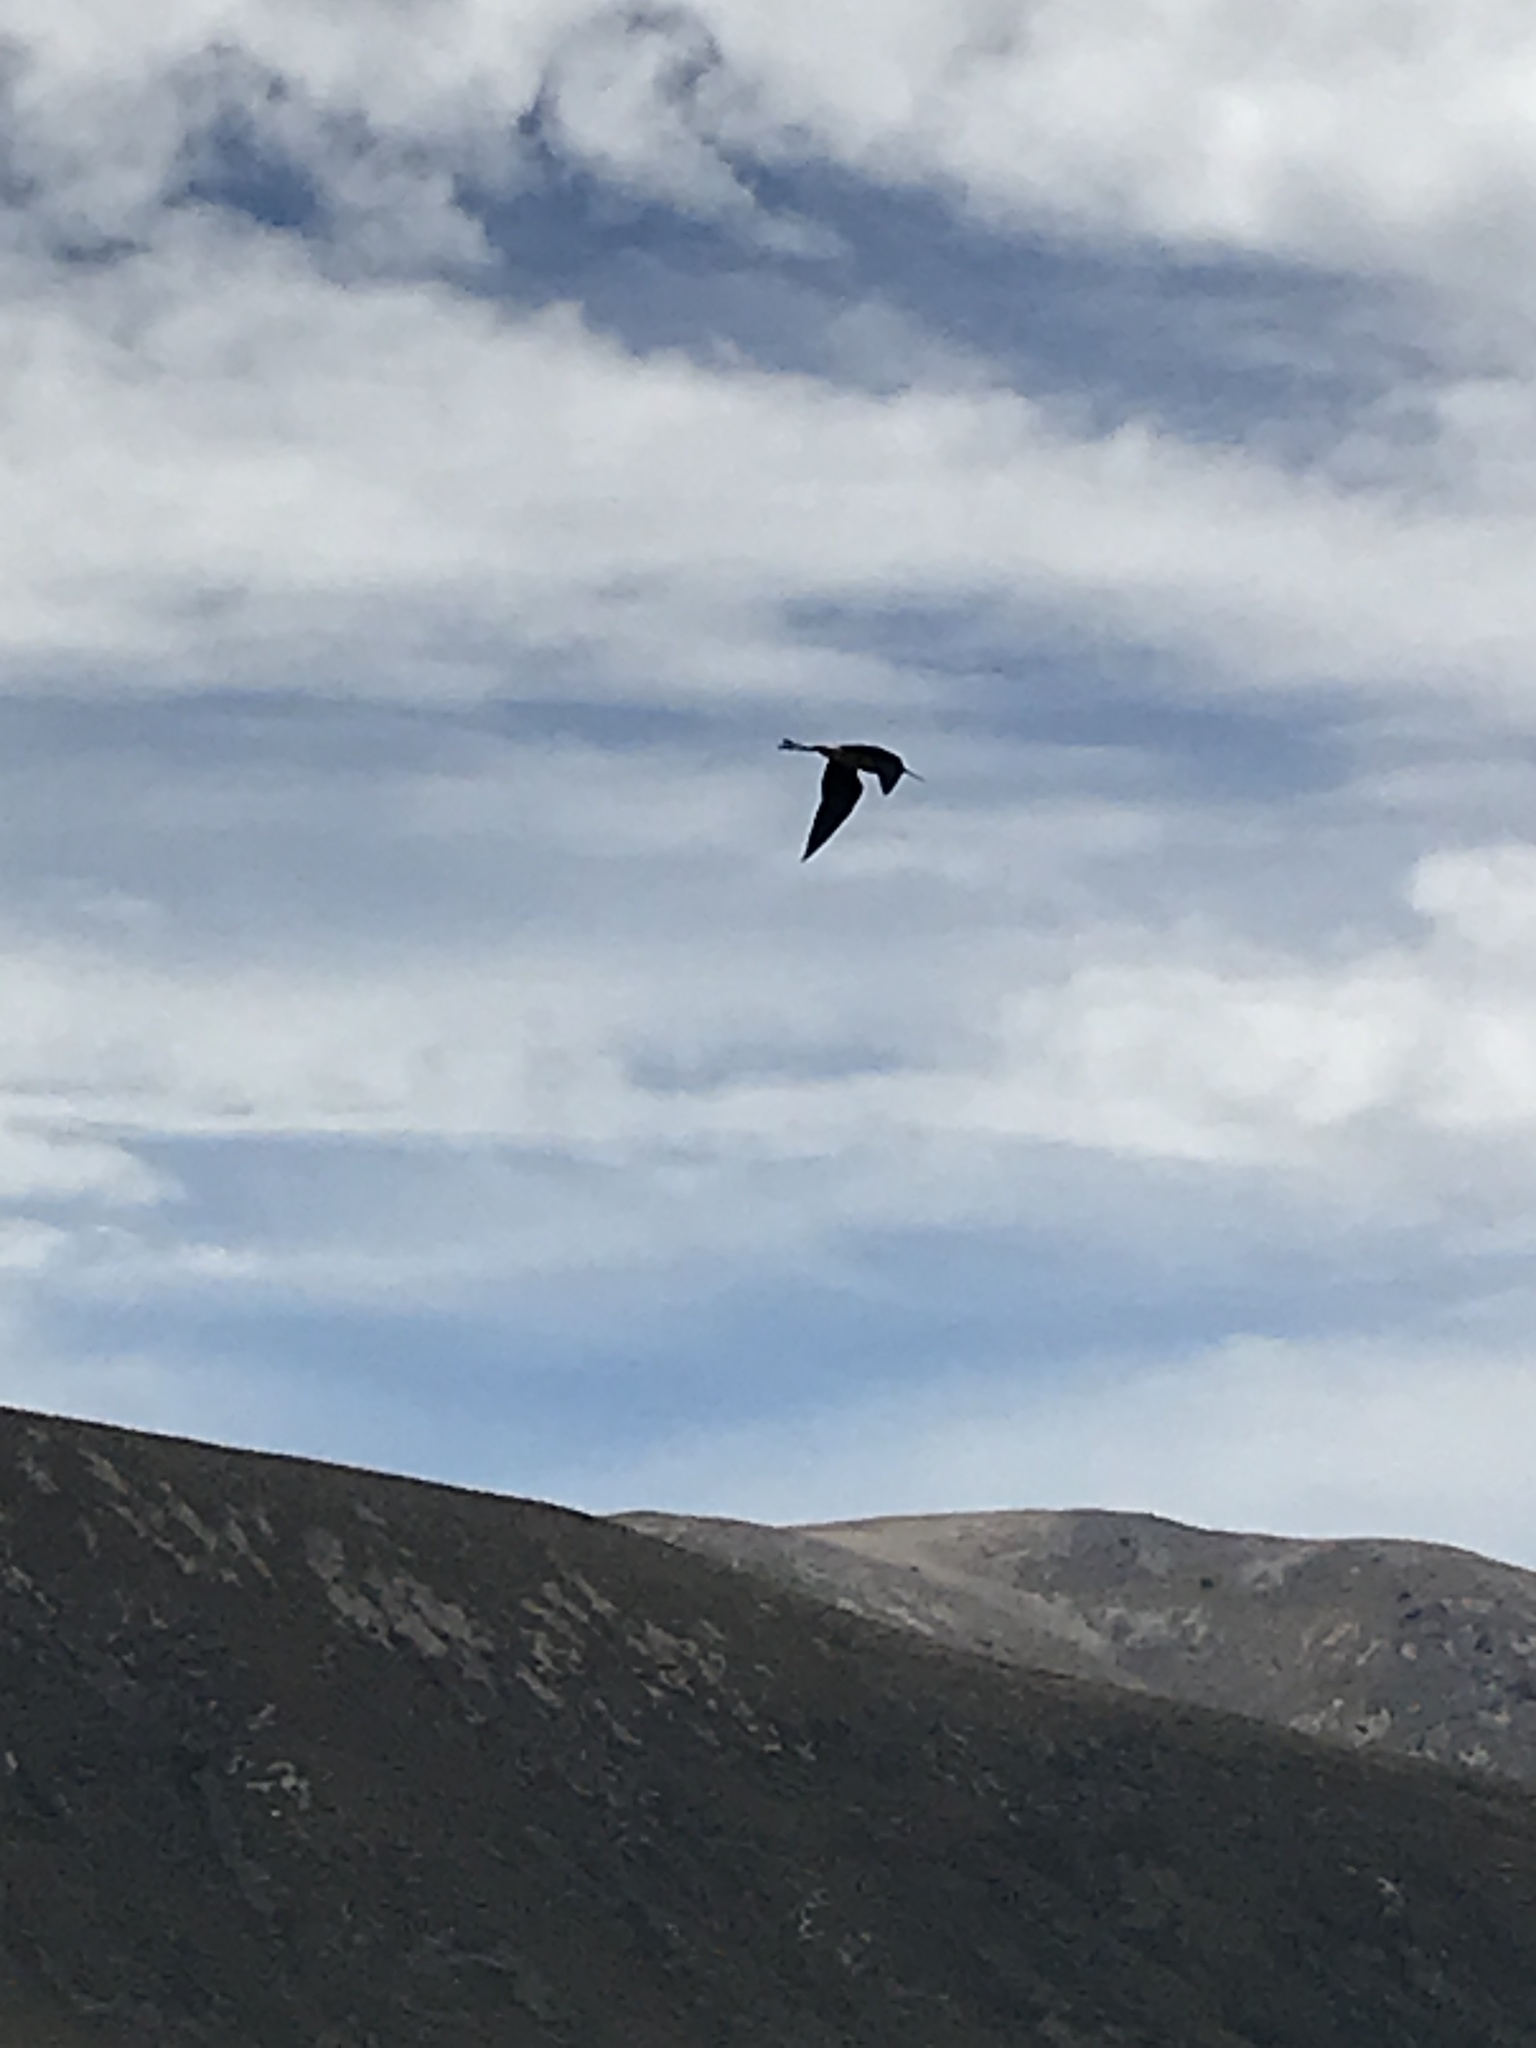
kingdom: Animalia
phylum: Chordata
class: Aves
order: Charadriiformes
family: Recurvirostridae
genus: Himantopus
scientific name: Himantopus novaezelandiae
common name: Black stilt
